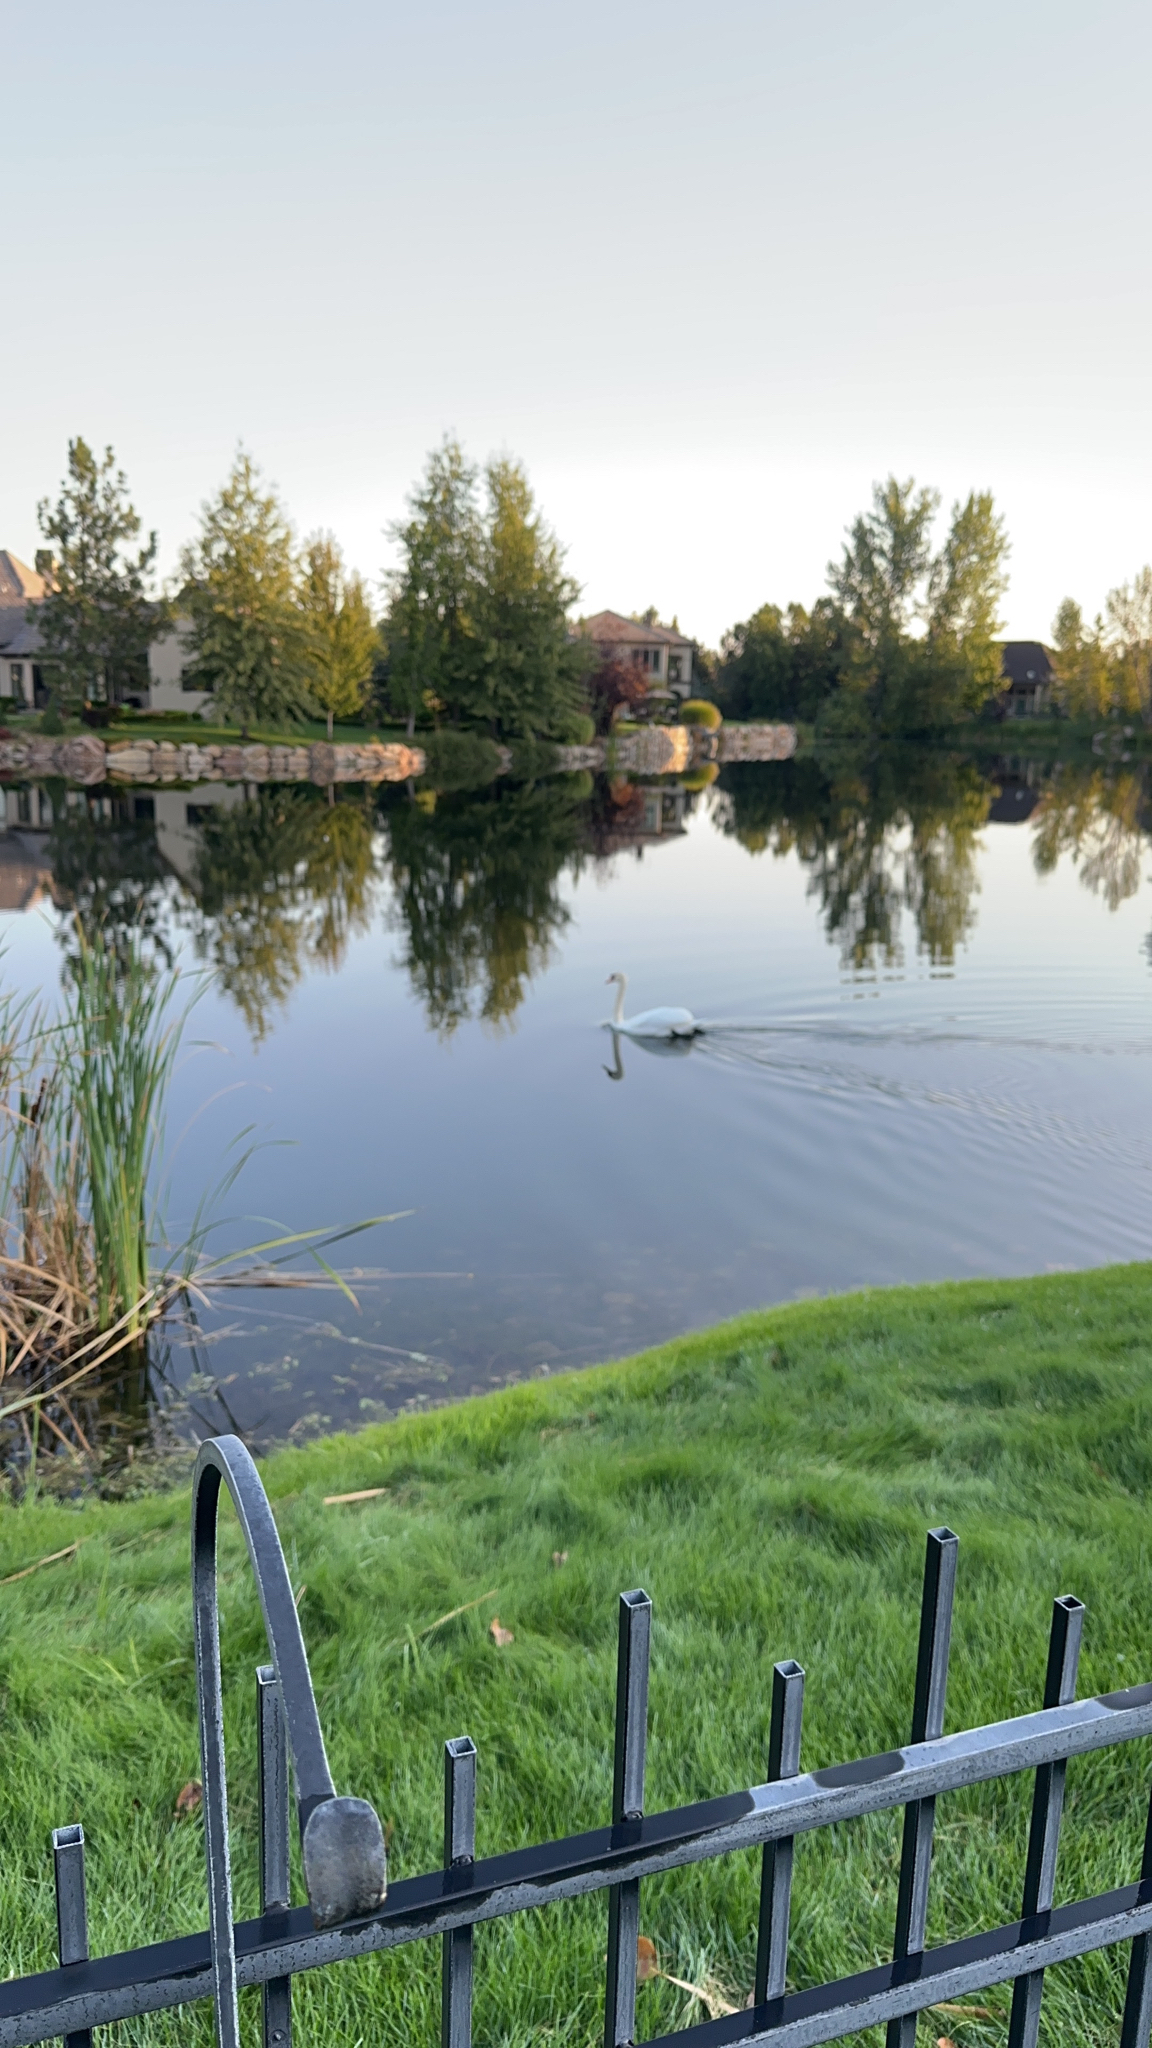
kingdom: Animalia
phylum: Chordata
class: Aves
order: Anseriformes
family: Anatidae
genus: Cygnus
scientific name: Cygnus olor
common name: Mute swan
